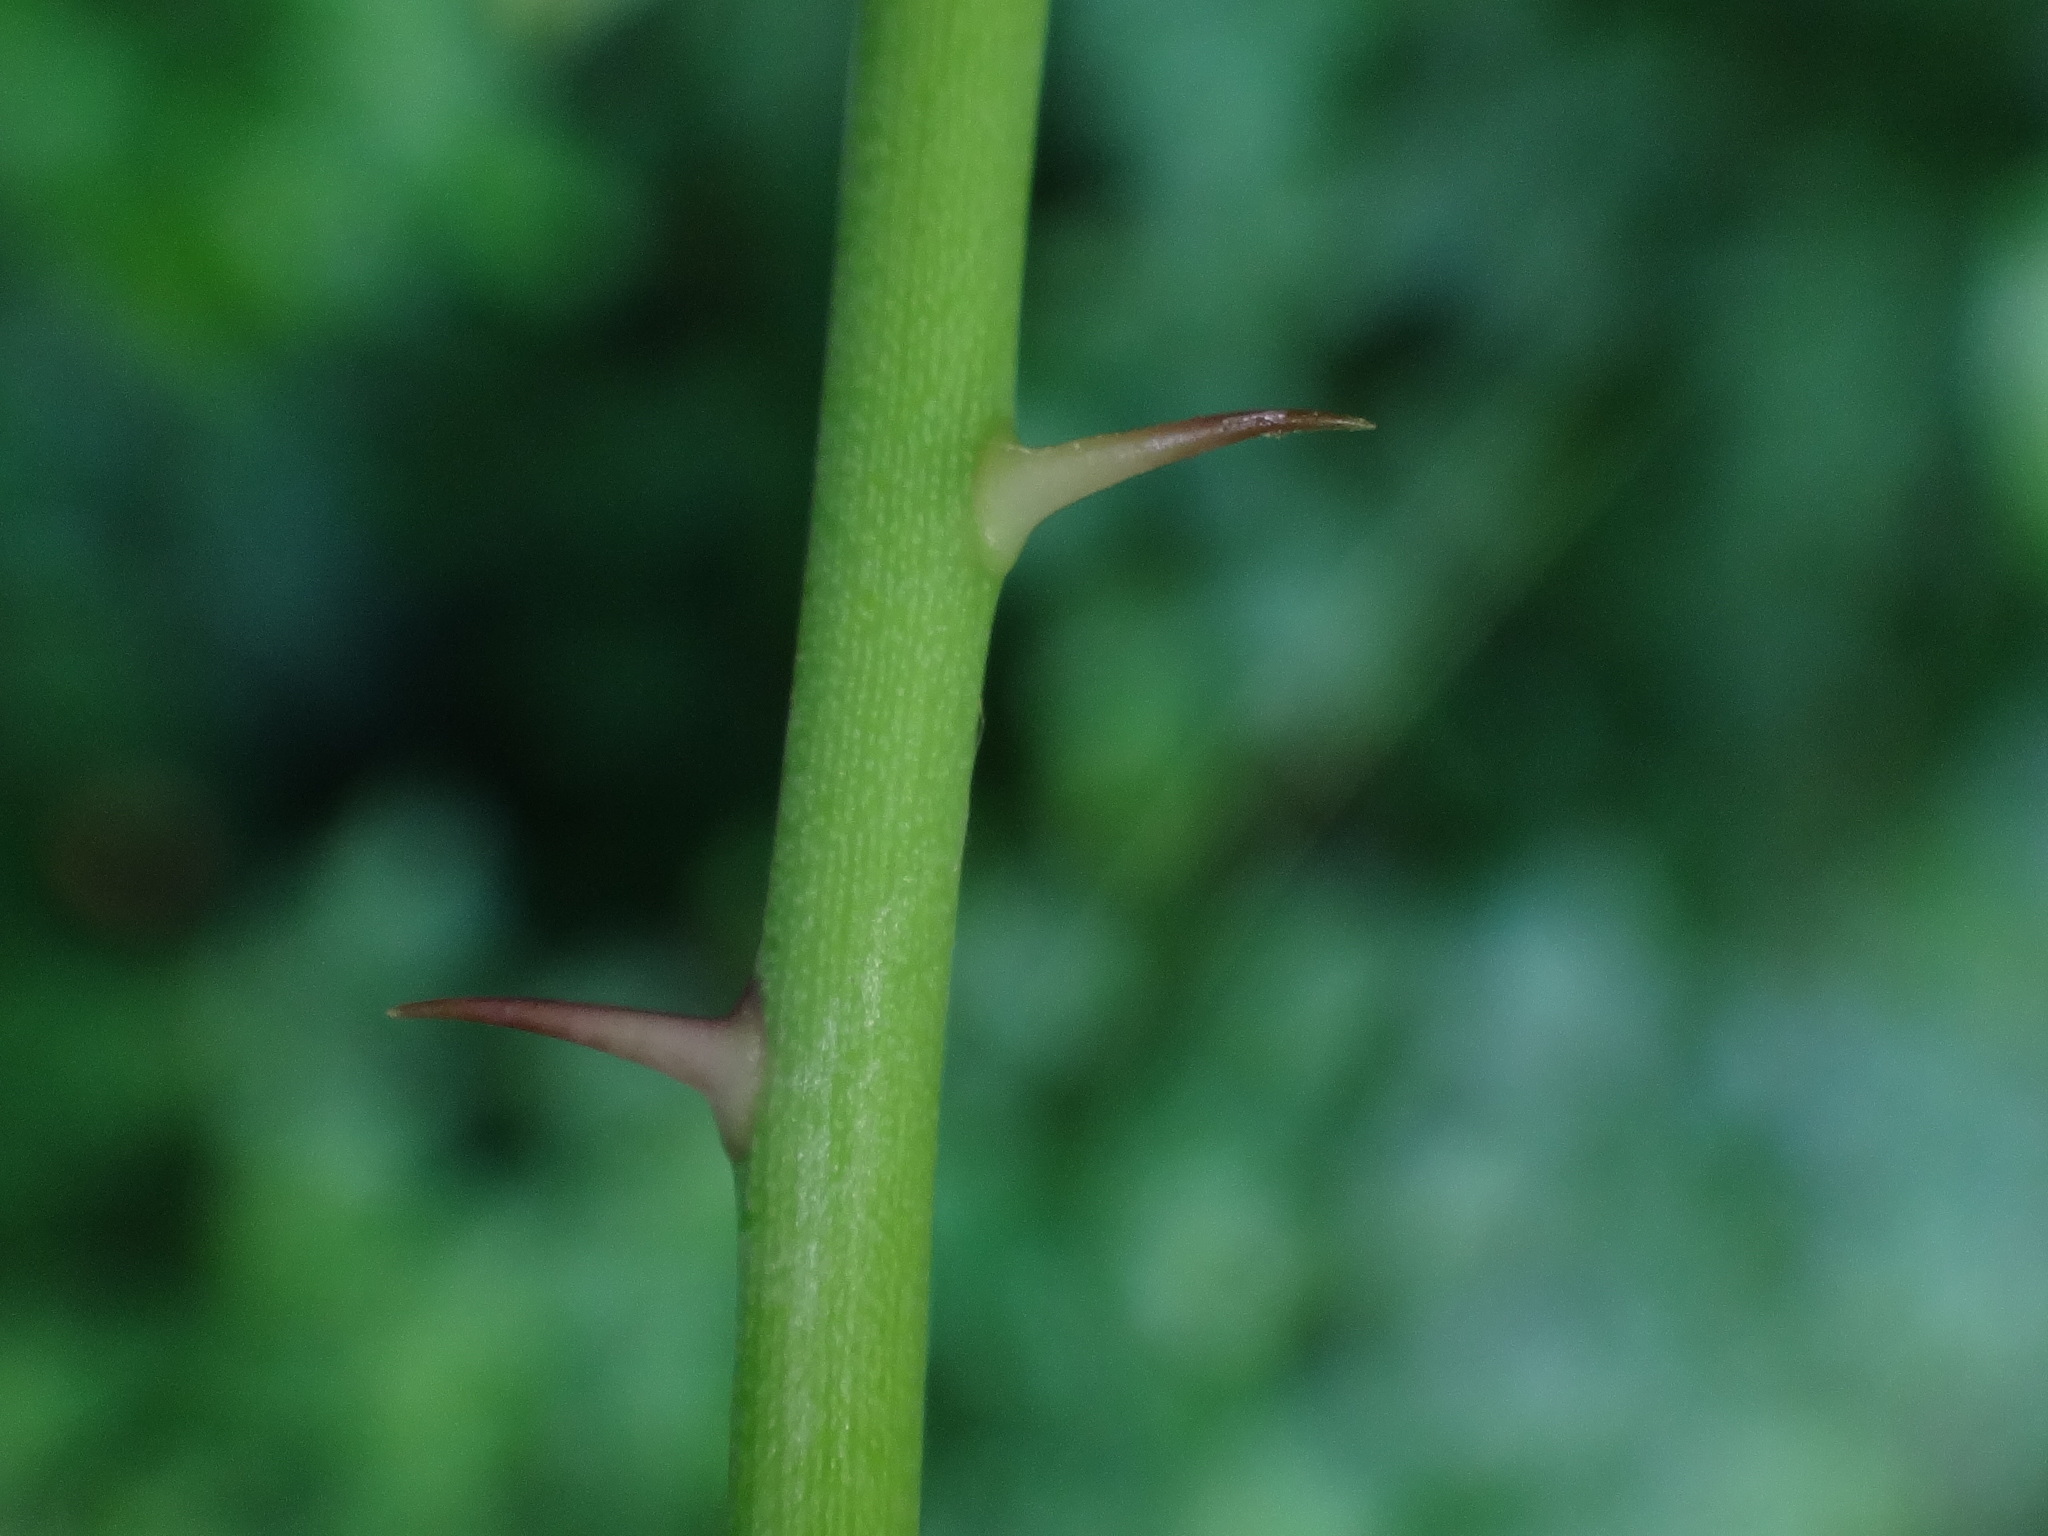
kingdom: Plantae
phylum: Tracheophyta
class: Magnoliopsida
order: Rosales
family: Rosaceae
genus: Rosa
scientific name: Rosa arvensis
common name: Field rose
